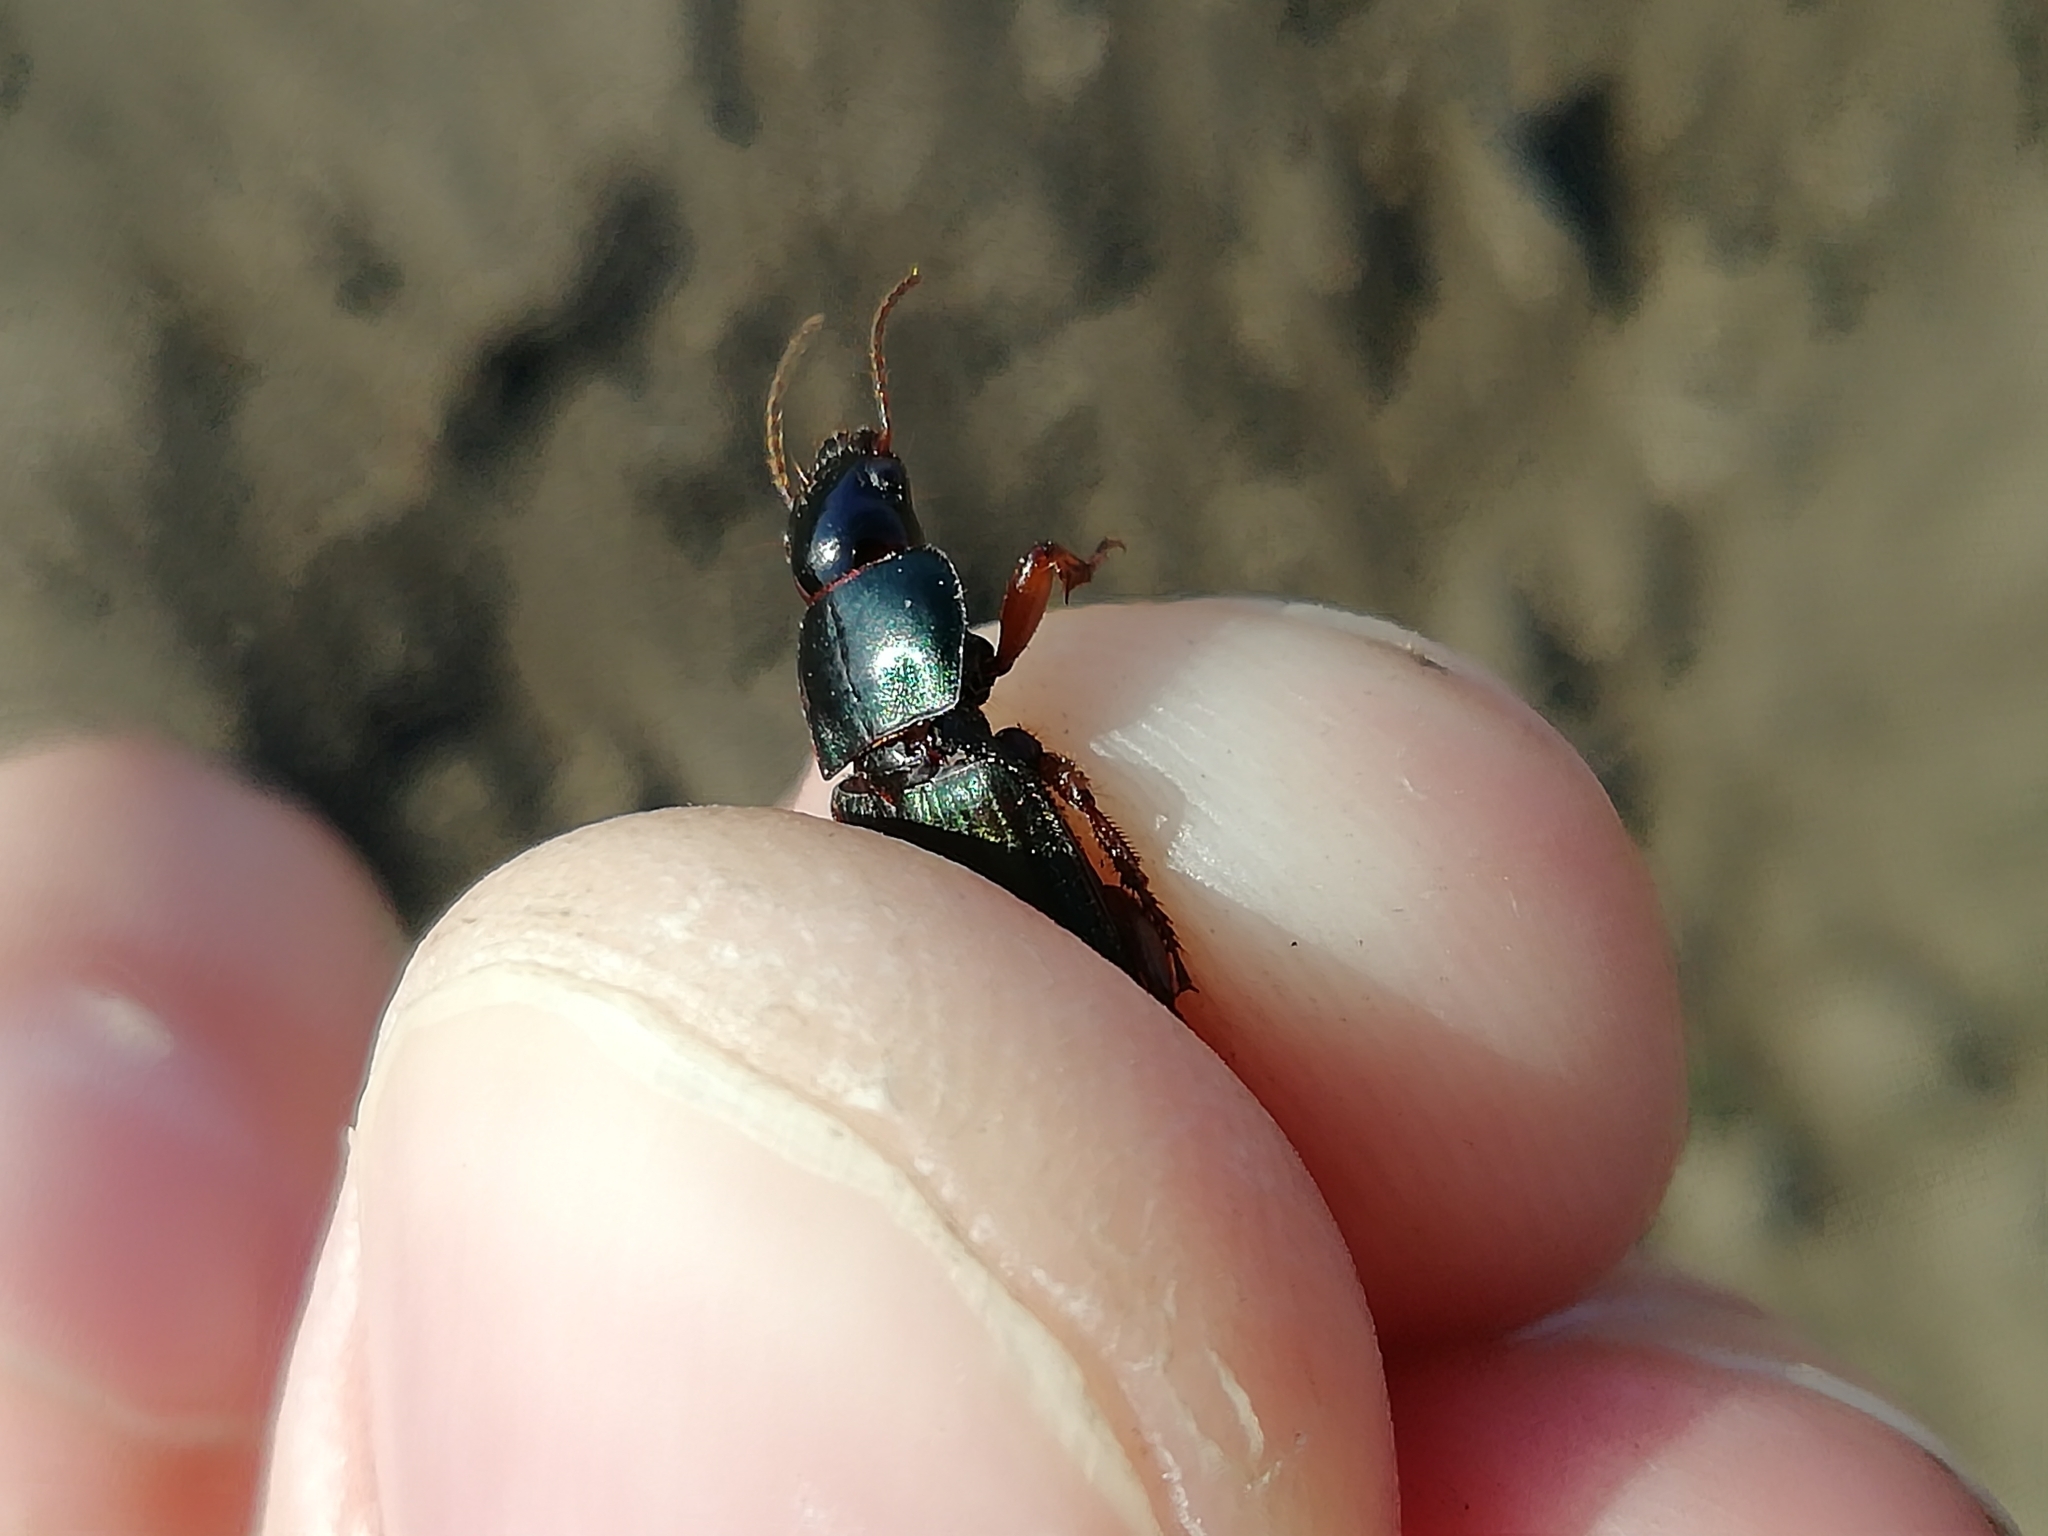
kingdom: Animalia
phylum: Arthropoda
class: Insecta
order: Coleoptera
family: Carabidae
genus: Harpalus
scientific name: Harpalus affinis
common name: Polychrome harp ground beetle
